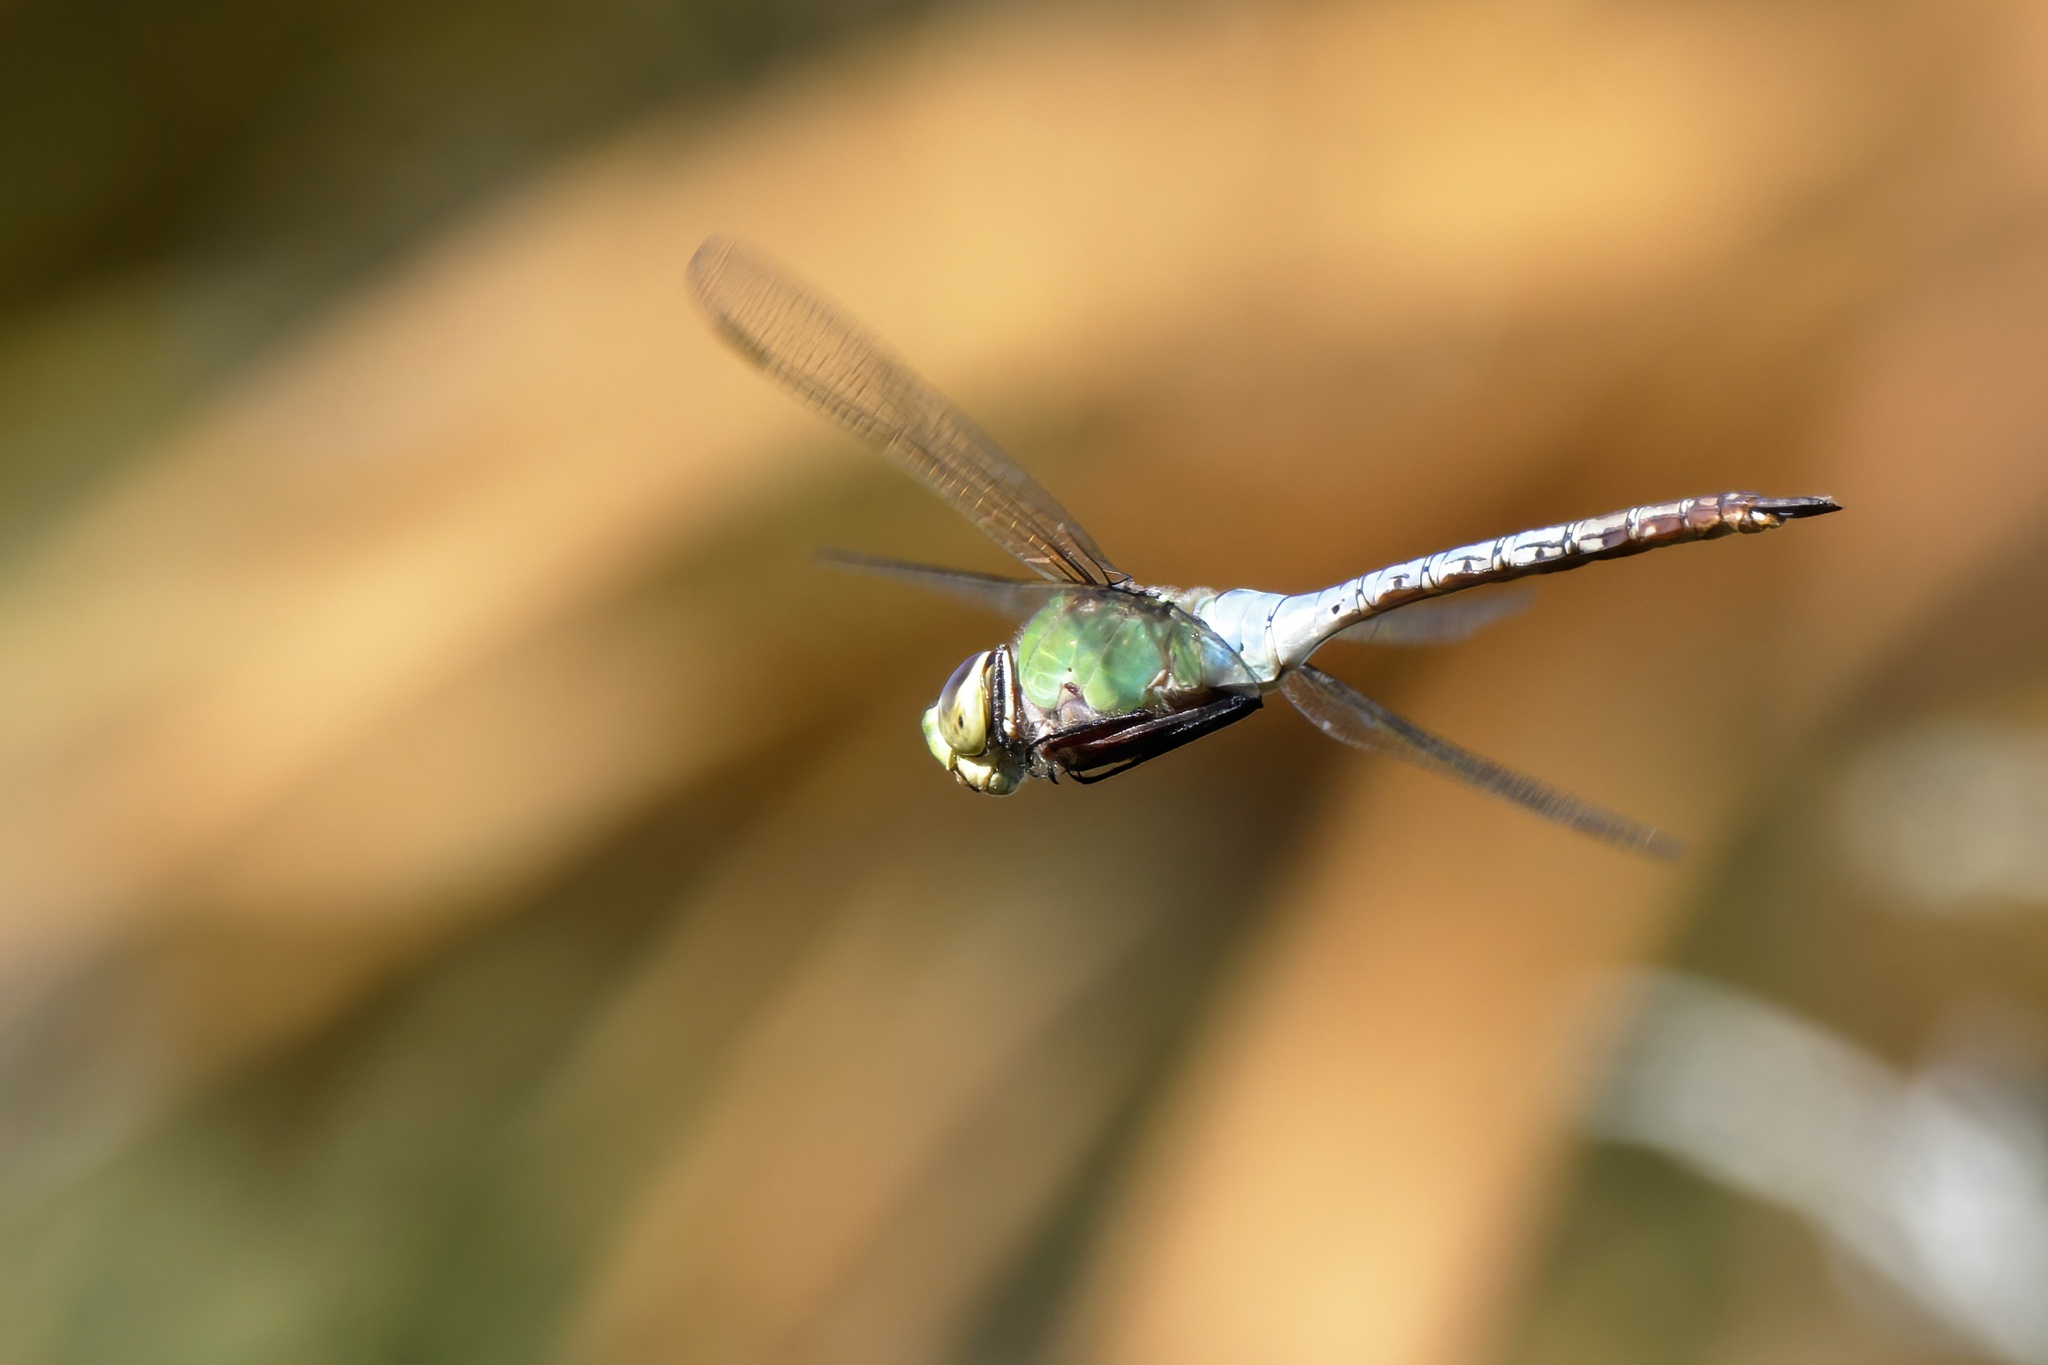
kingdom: Animalia
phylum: Arthropoda
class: Insecta
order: Odonata
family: Aeshnidae
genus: Anax
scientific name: Anax junius
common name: Common green darner
